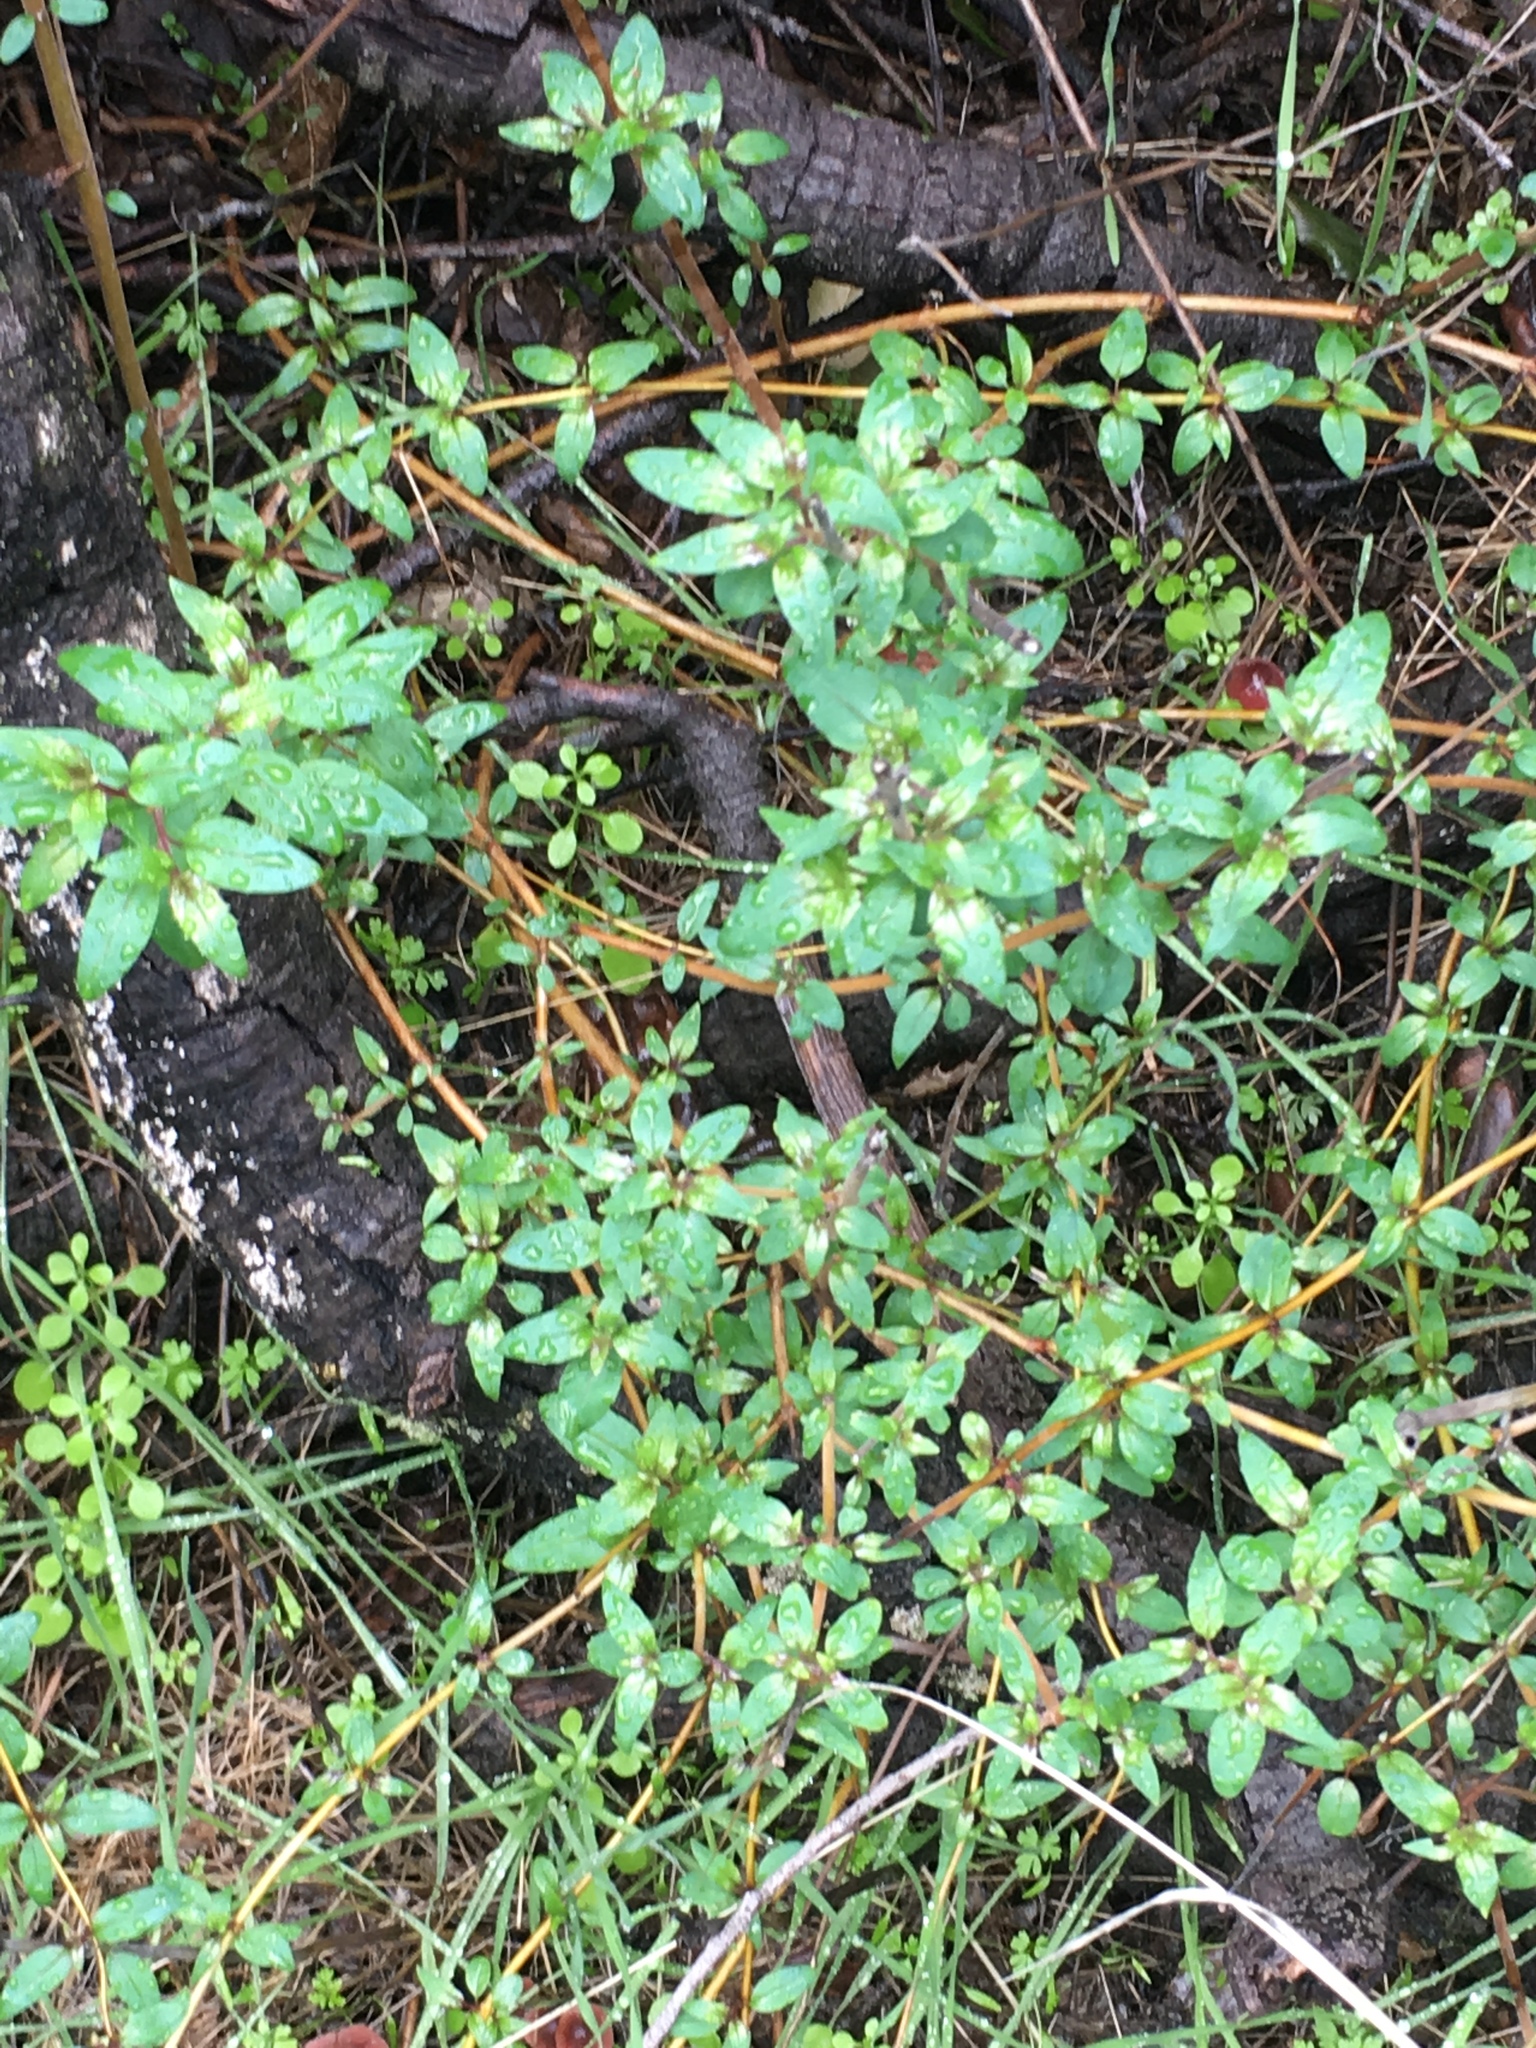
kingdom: Plantae
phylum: Tracheophyta
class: Magnoliopsida
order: Lamiales
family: Plantaginaceae
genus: Keckiella
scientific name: Keckiella cordifolia
